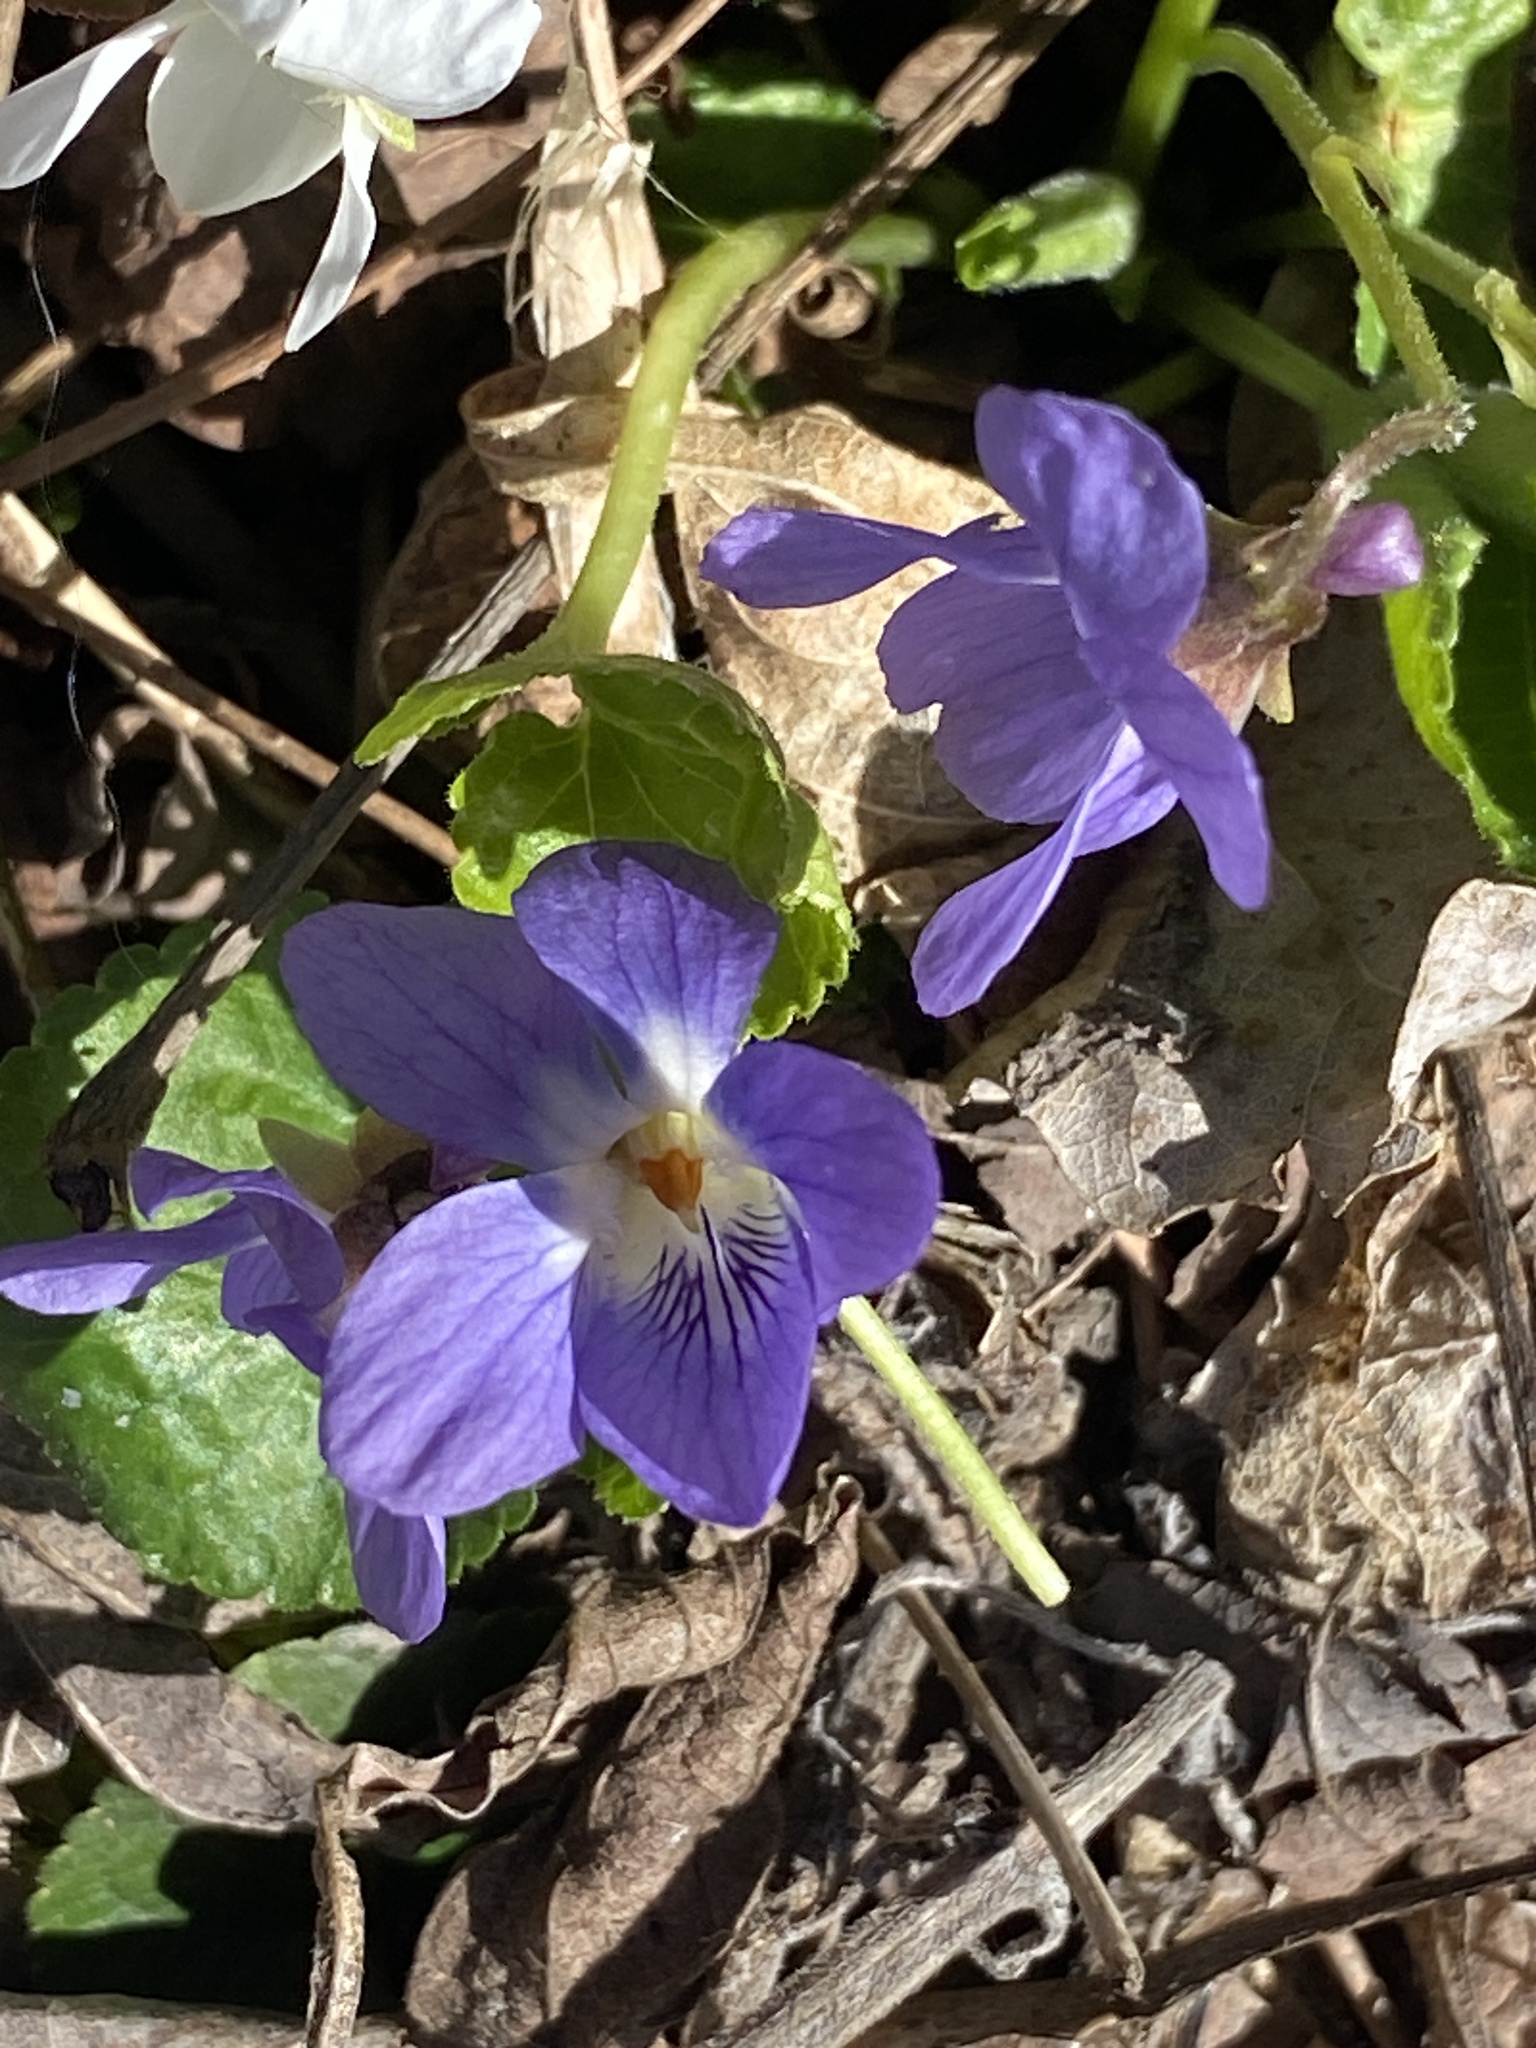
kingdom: Plantae
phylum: Tracheophyta
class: Magnoliopsida
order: Malpighiales
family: Violaceae
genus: Viola
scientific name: Viola odorata
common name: Sweet violet
